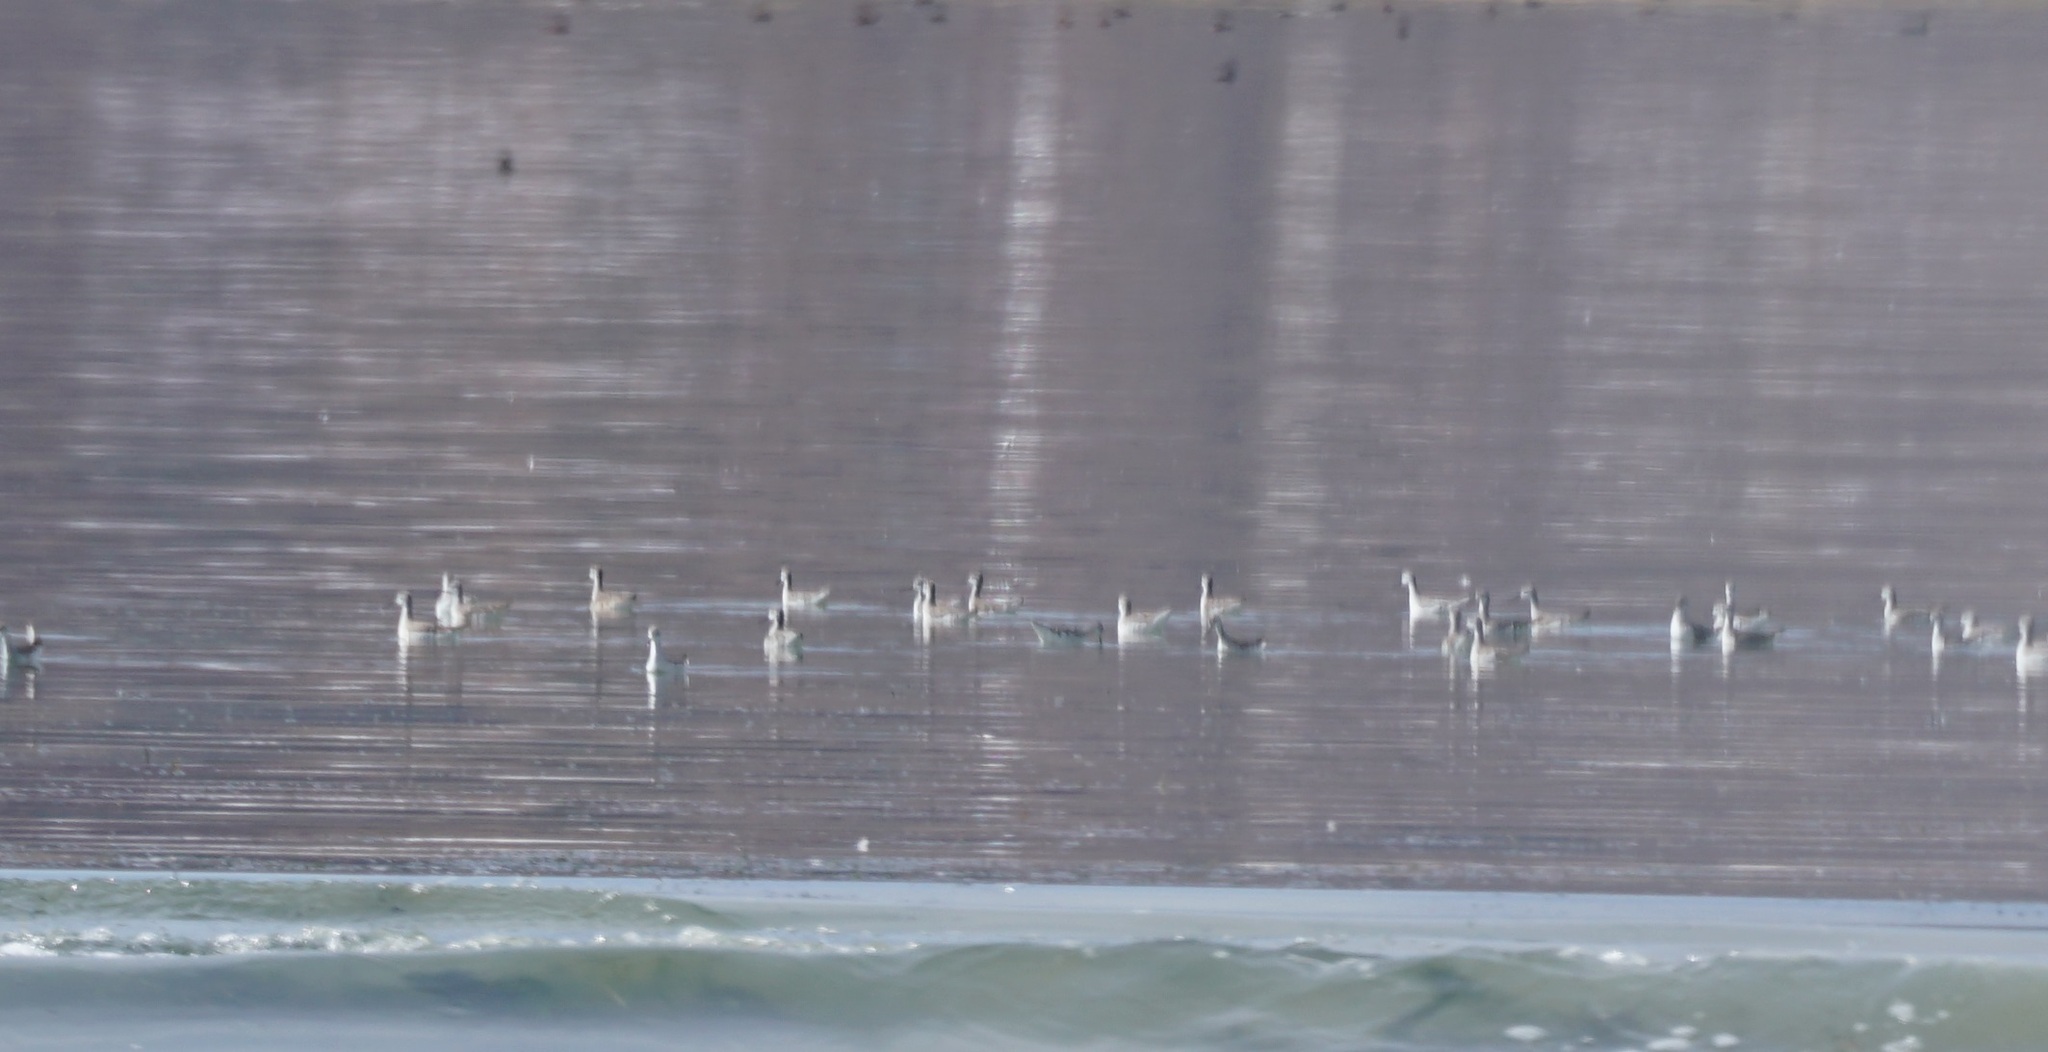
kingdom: Animalia
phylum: Chordata
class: Aves
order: Charadriiformes
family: Scolopacidae
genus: Phalaropus
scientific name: Phalaropus tricolor
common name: Wilson's phalarope
